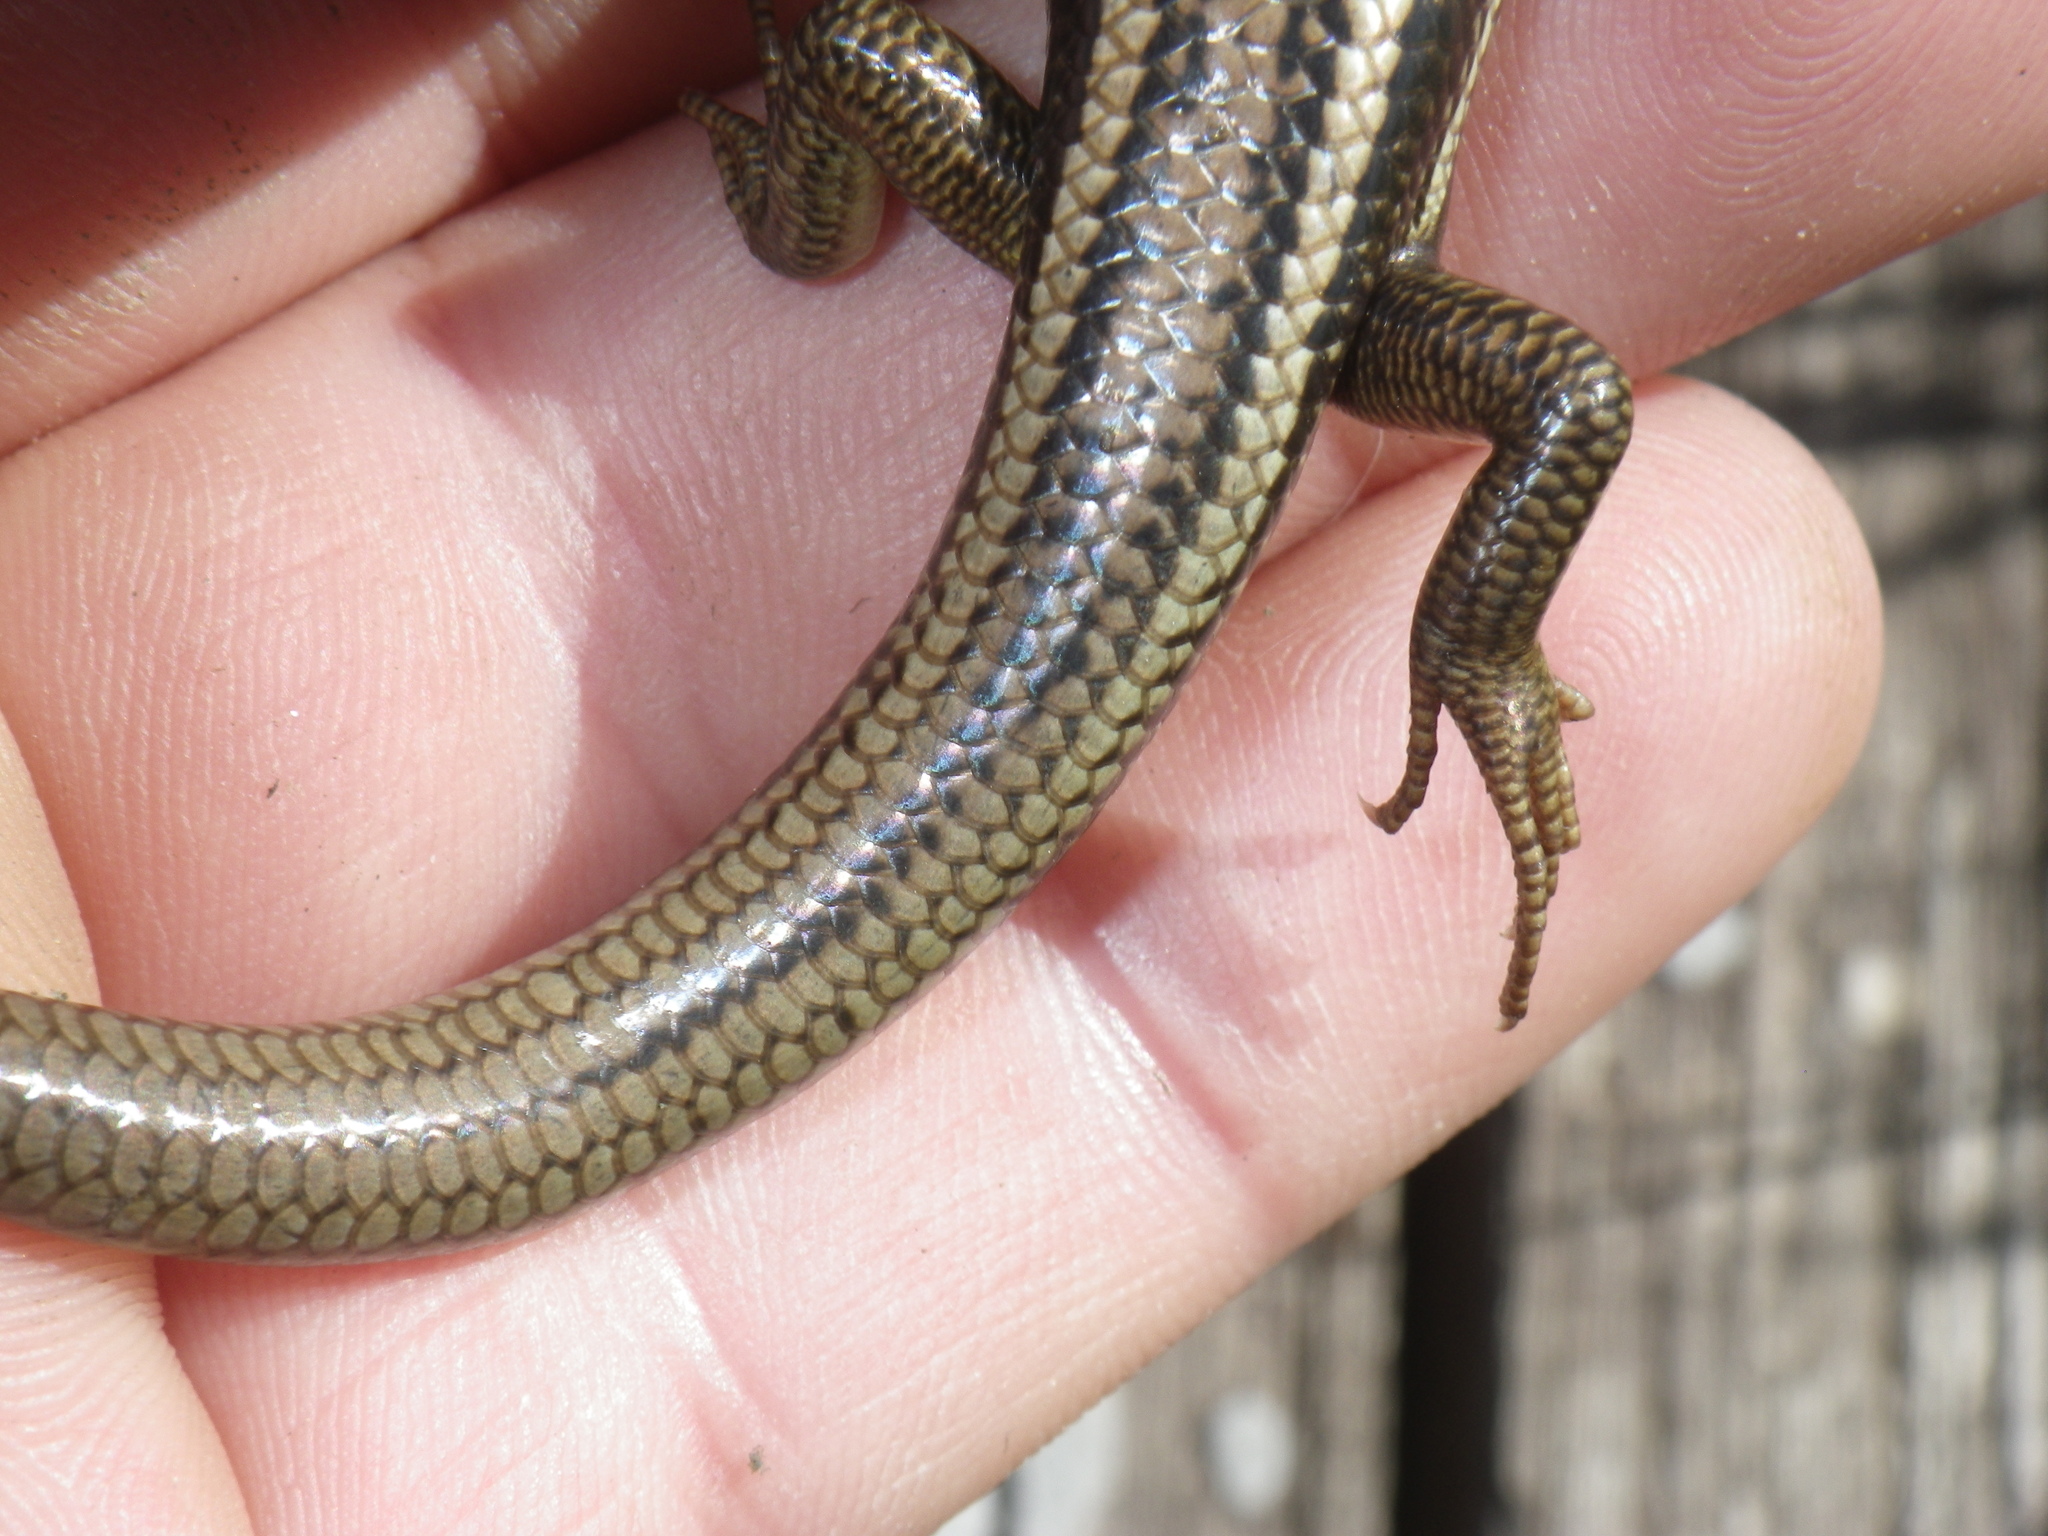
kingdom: Animalia
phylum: Chordata
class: Squamata
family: Scincidae
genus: Plestiodon
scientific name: Plestiodon gilberti
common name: Gilbert's skink
